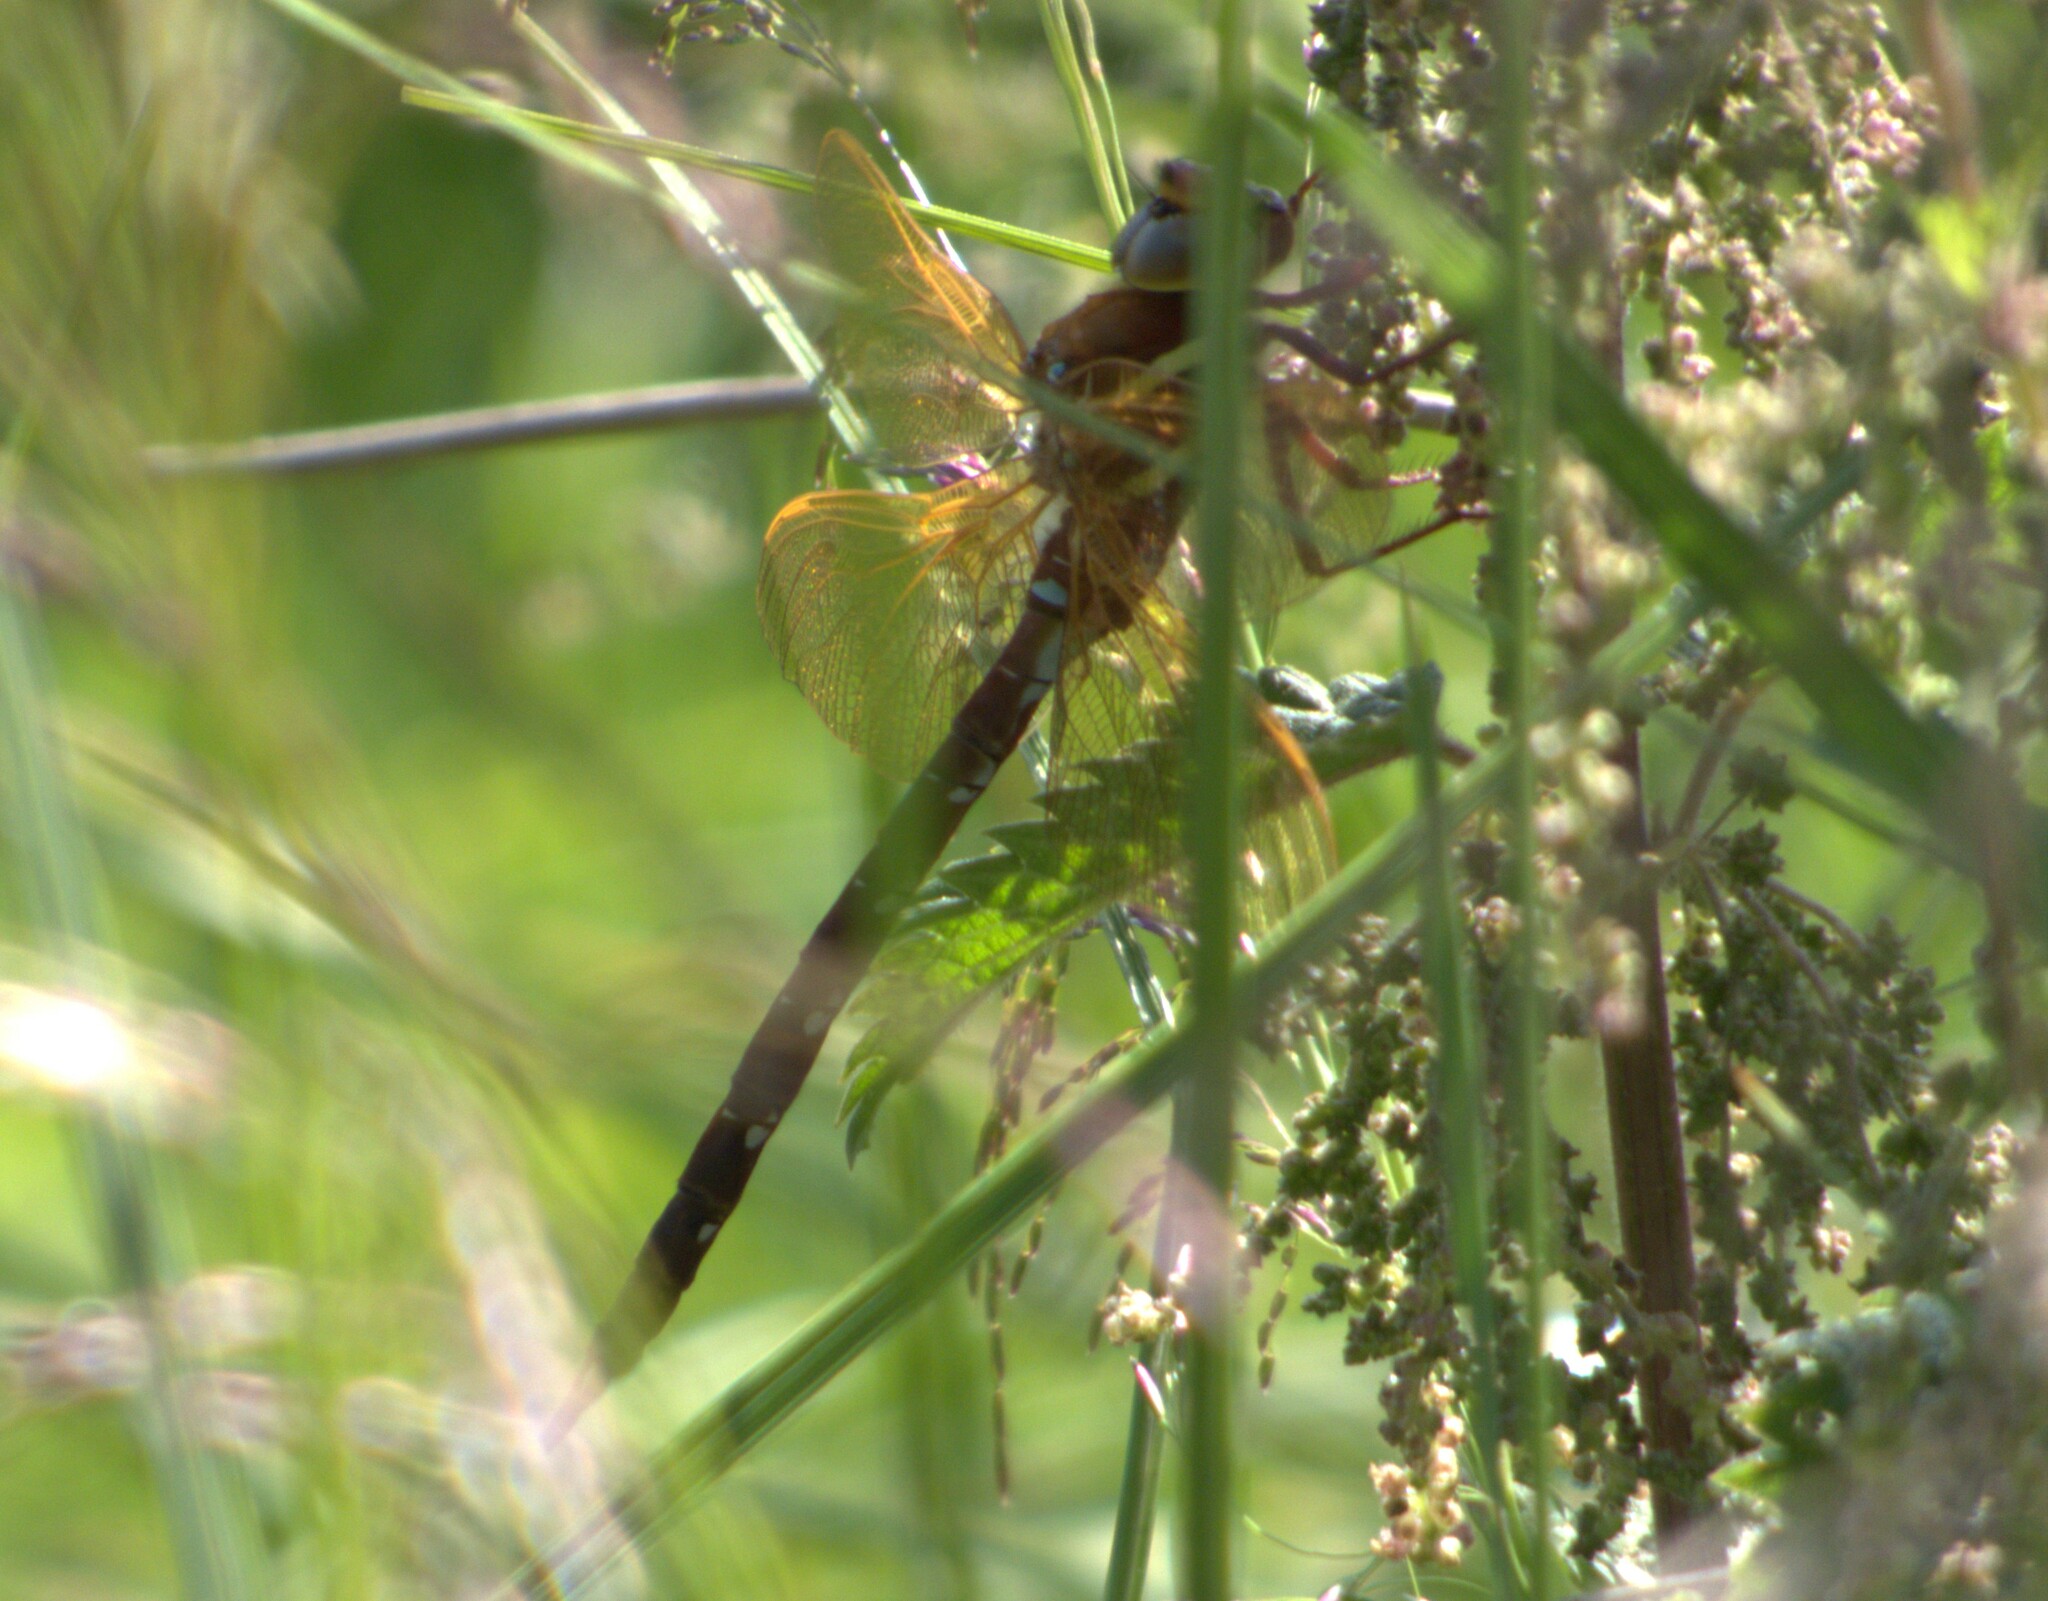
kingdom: Animalia
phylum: Arthropoda
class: Insecta
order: Odonata
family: Aeshnidae
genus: Aeshna
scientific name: Aeshna grandis
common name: Brown hawker
